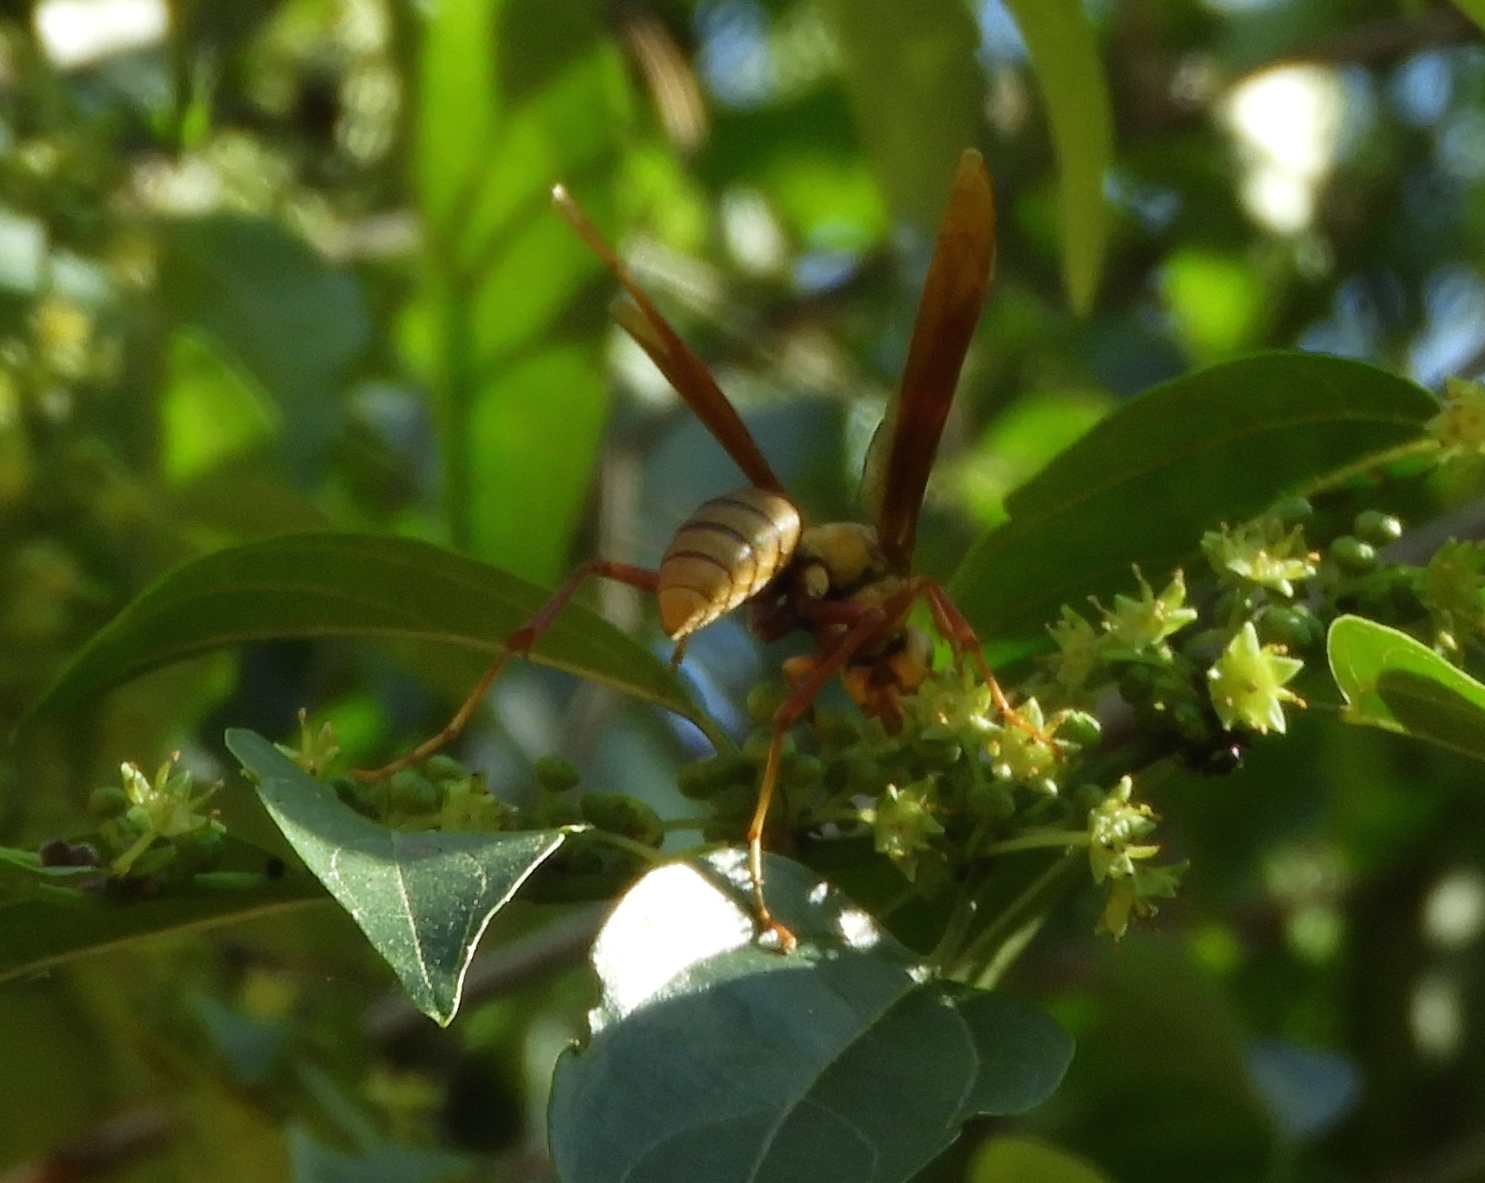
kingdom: Animalia
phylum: Arthropoda
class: Insecta
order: Hymenoptera
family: Eumenidae
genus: Polistes
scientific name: Polistes carnifex
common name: Paper wasp
